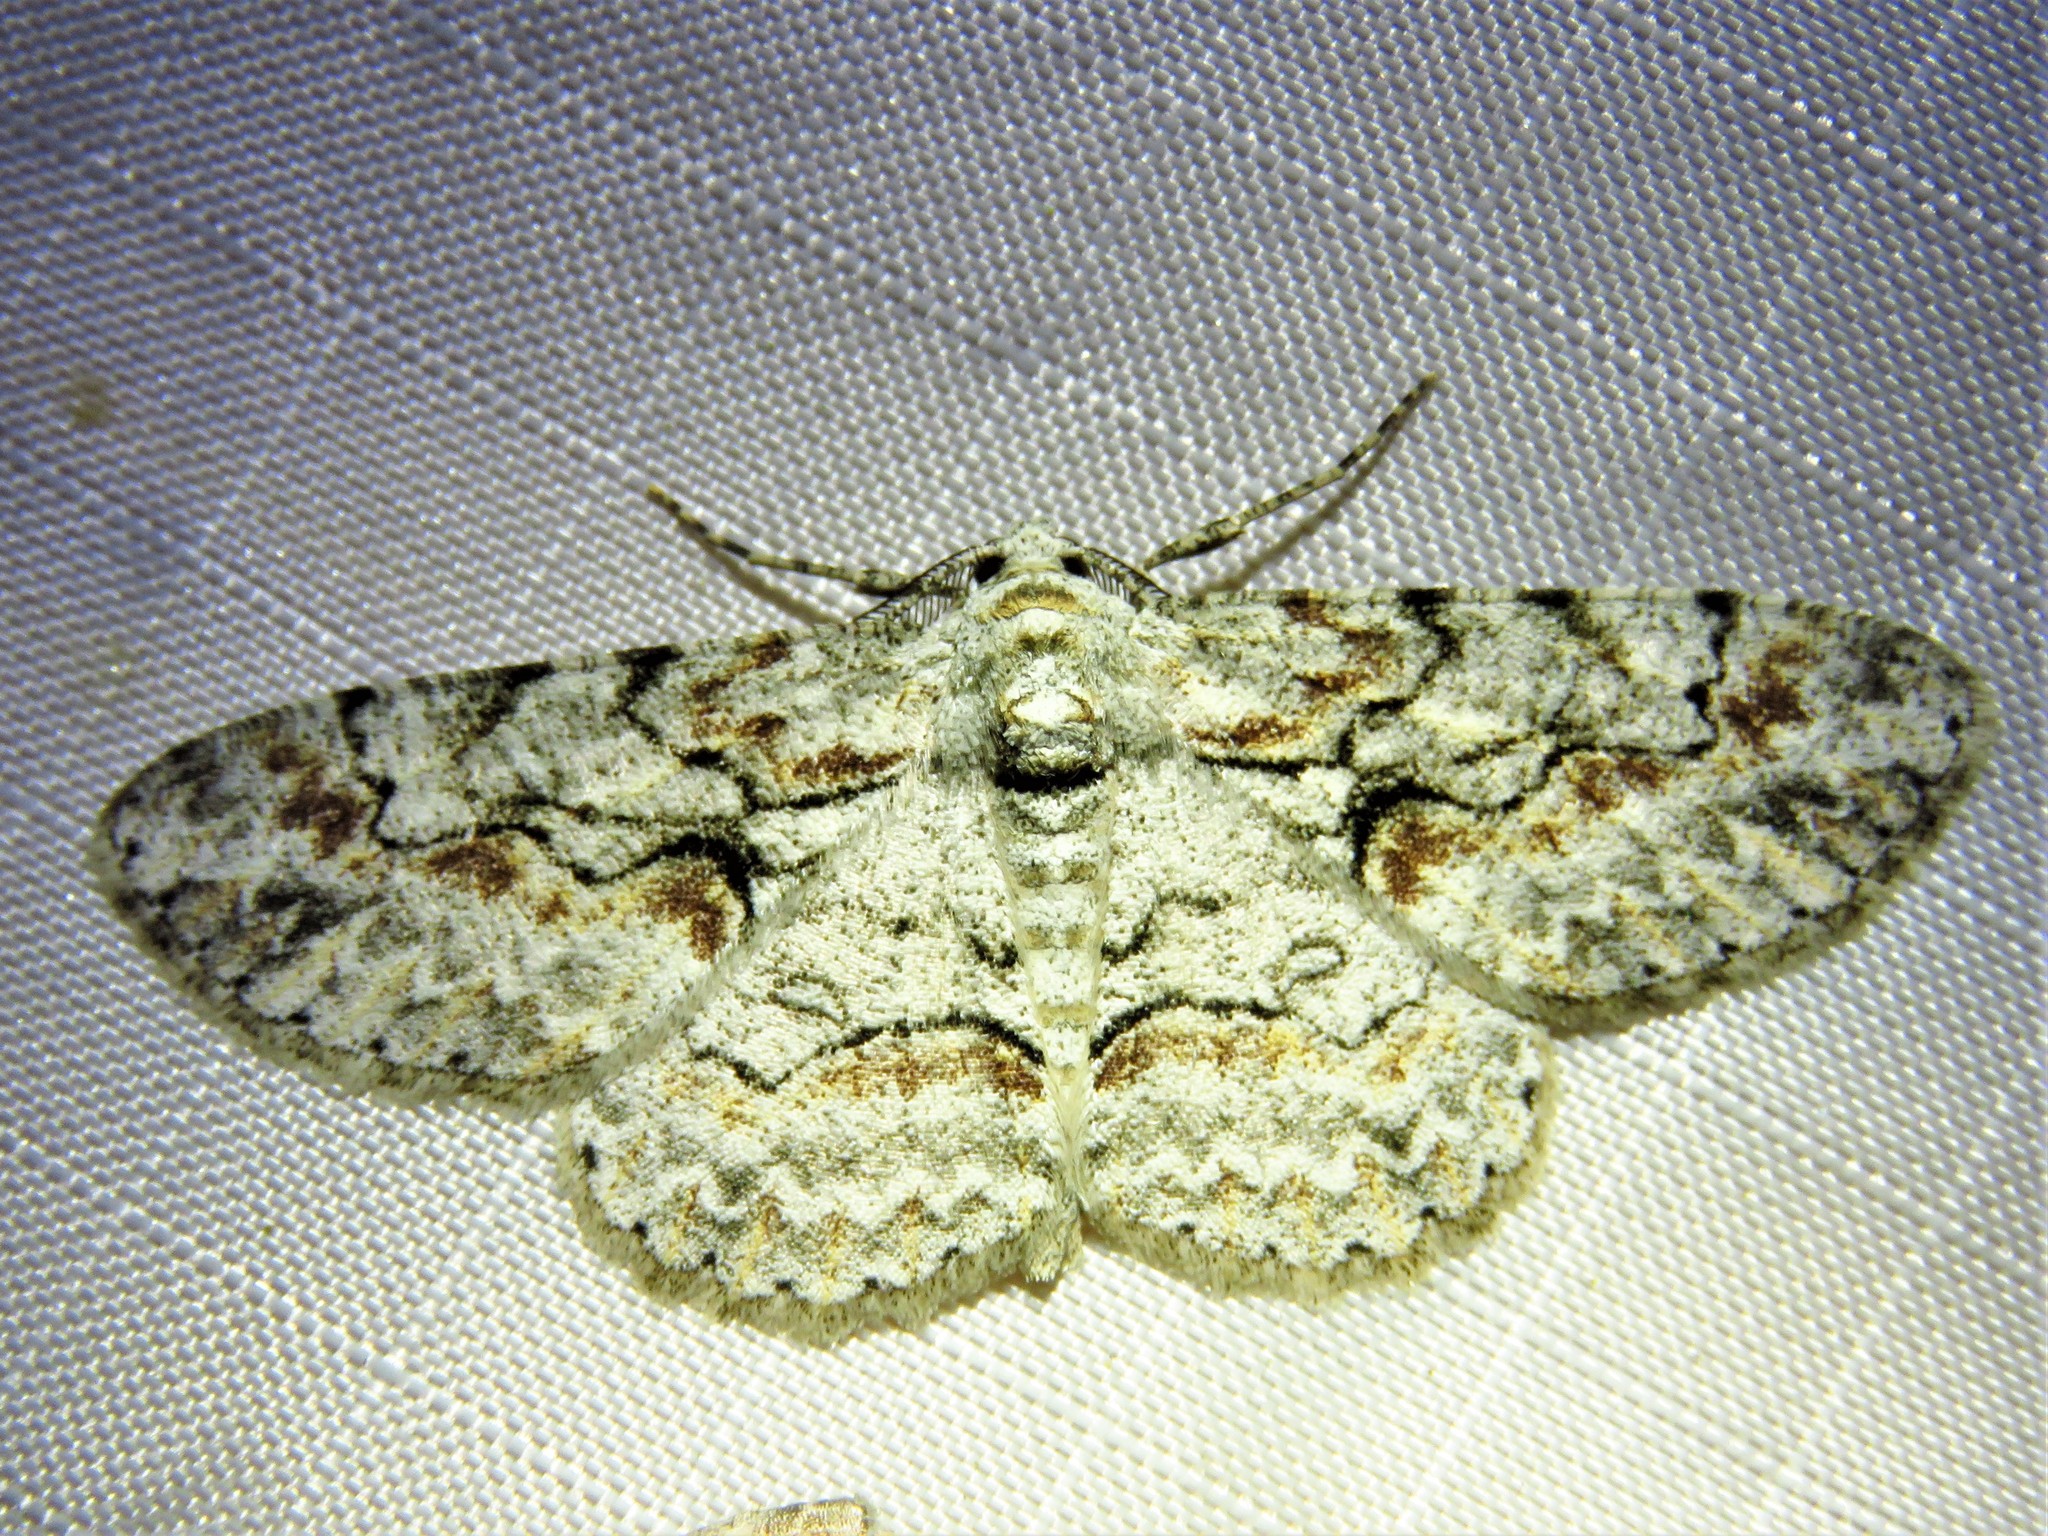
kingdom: Animalia
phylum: Arthropoda
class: Insecta
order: Lepidoptera
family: Geometridae
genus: Iridopsis
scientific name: Iridopsis defectaria
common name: Brown-shaded gray
